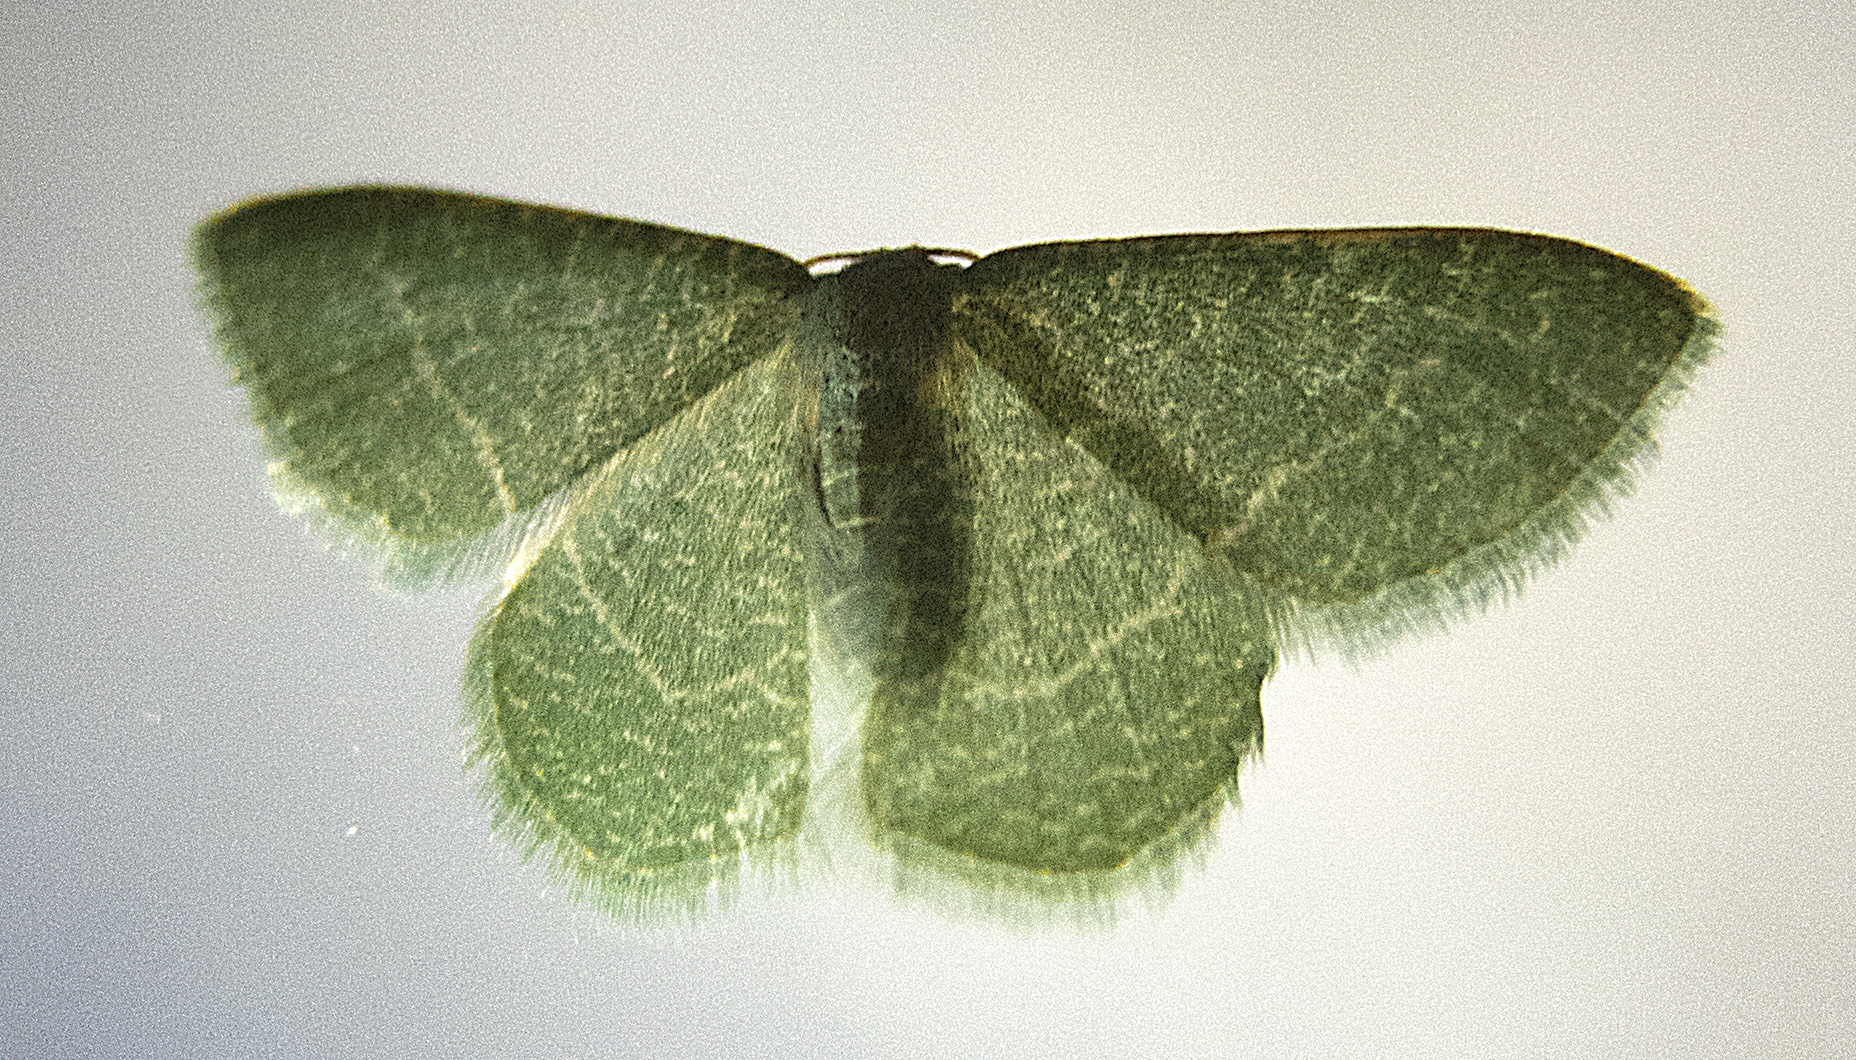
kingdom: Animalia
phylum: Arthropoda
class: Insecta
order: Lepidoptera
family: Geometridae
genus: Chlorissa
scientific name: Chlorissa etruscaria
